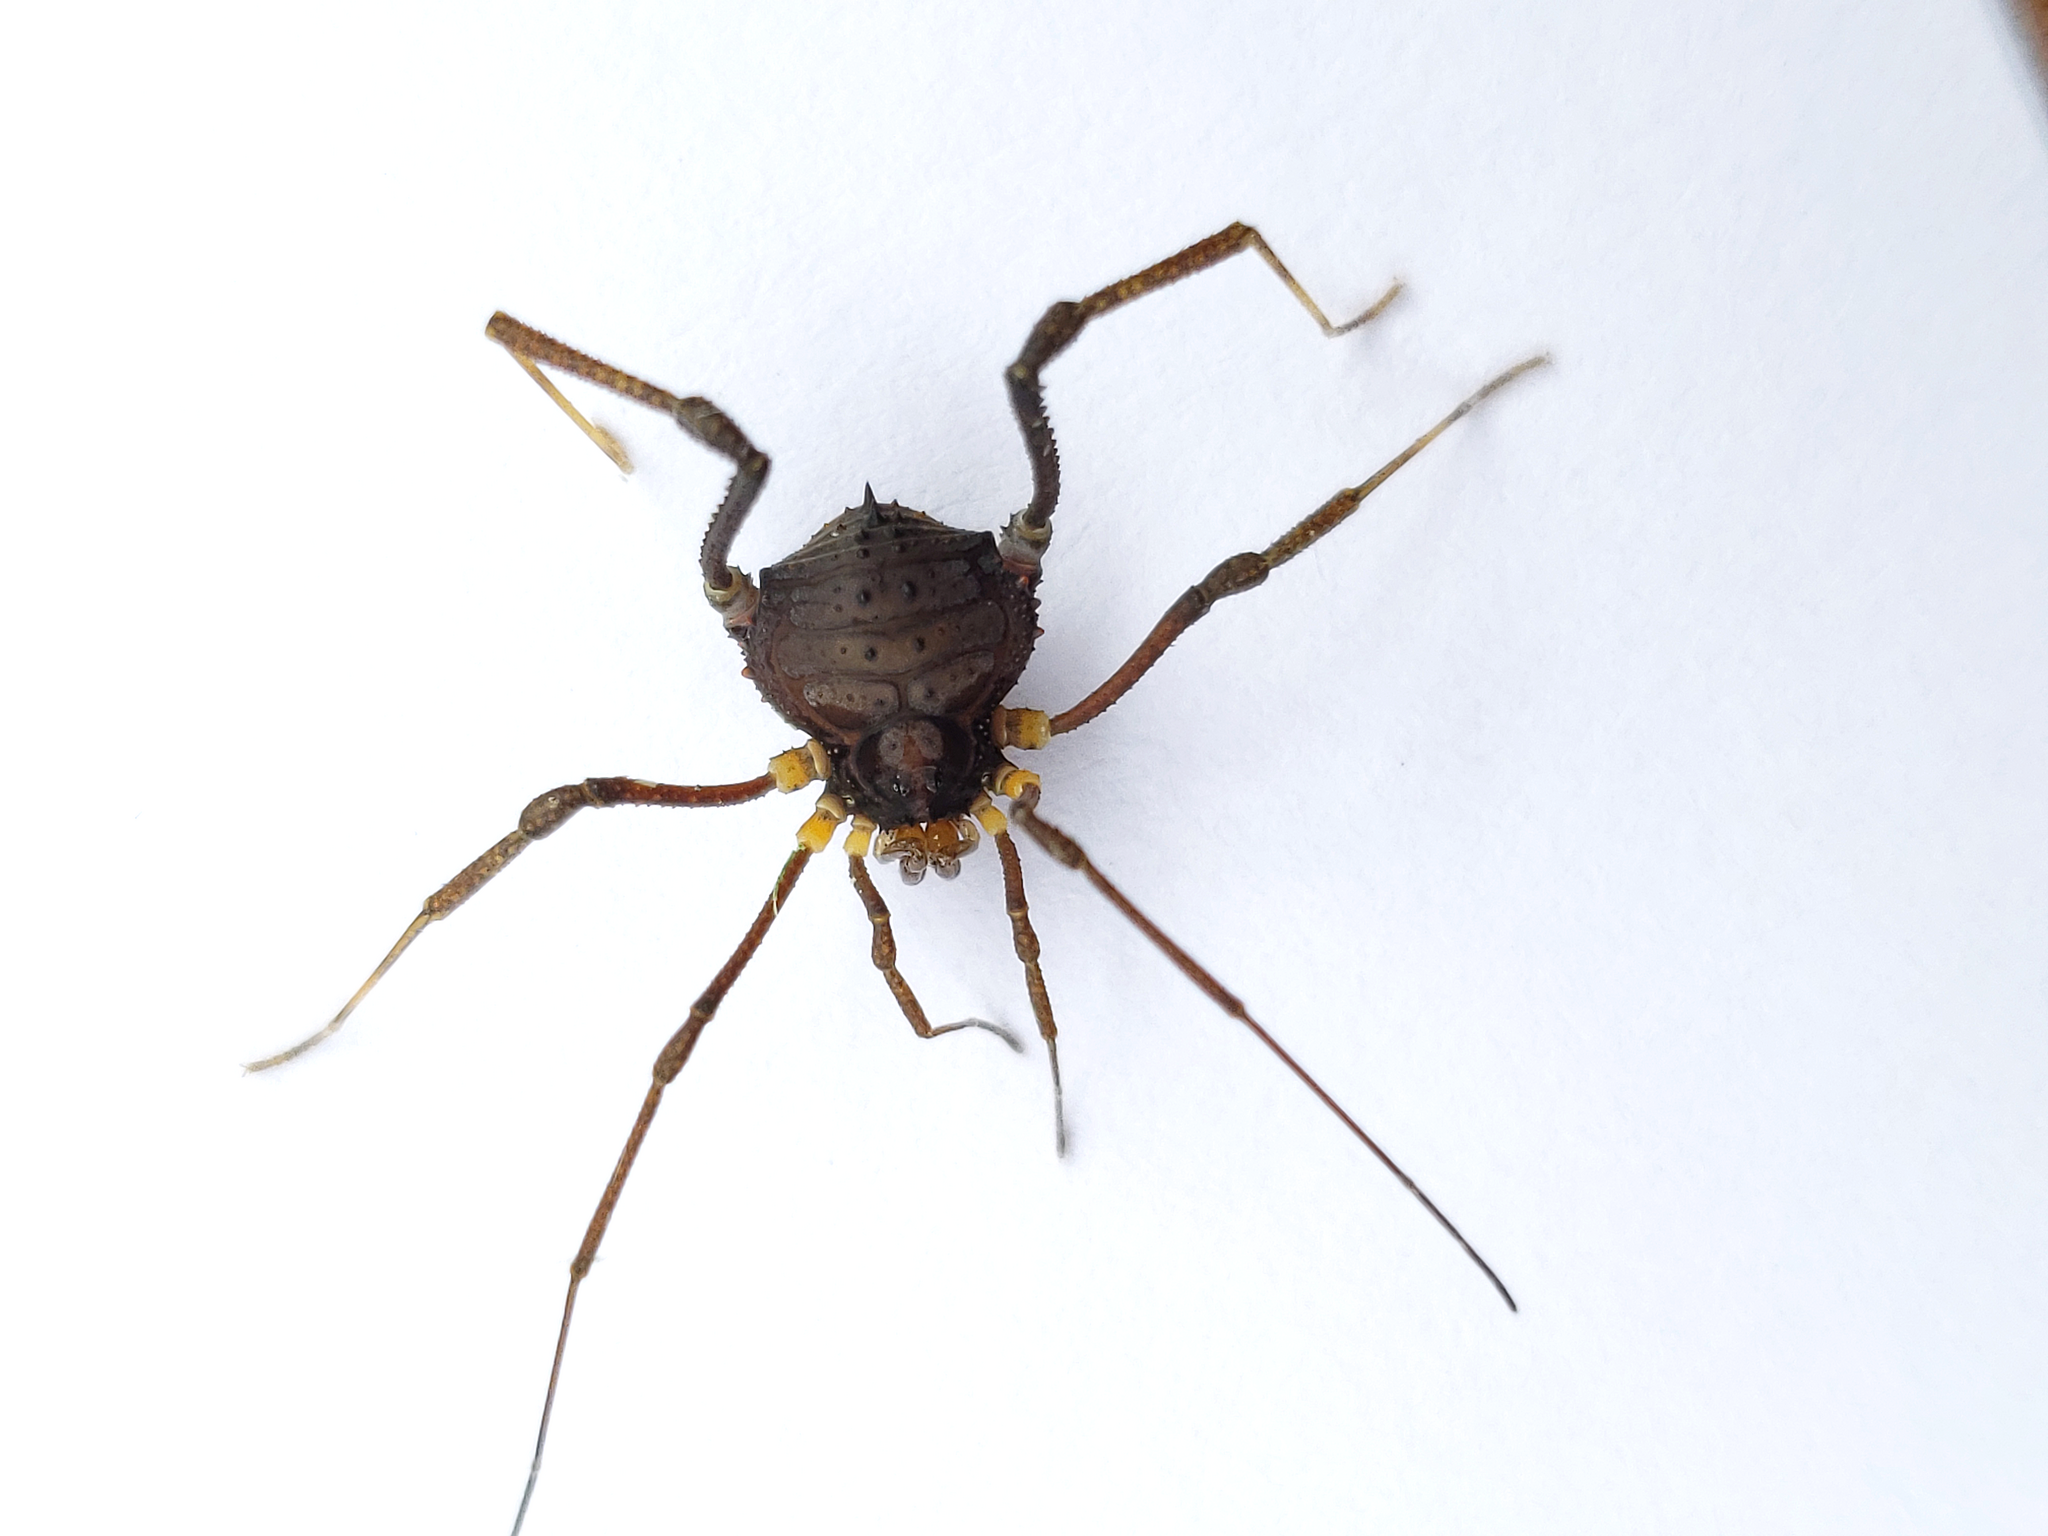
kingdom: Animalia
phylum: Arthropoda
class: Arachnida
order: Opiliones
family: Gonyleptidae
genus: Mischonyx
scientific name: Mischonyx squalidus
